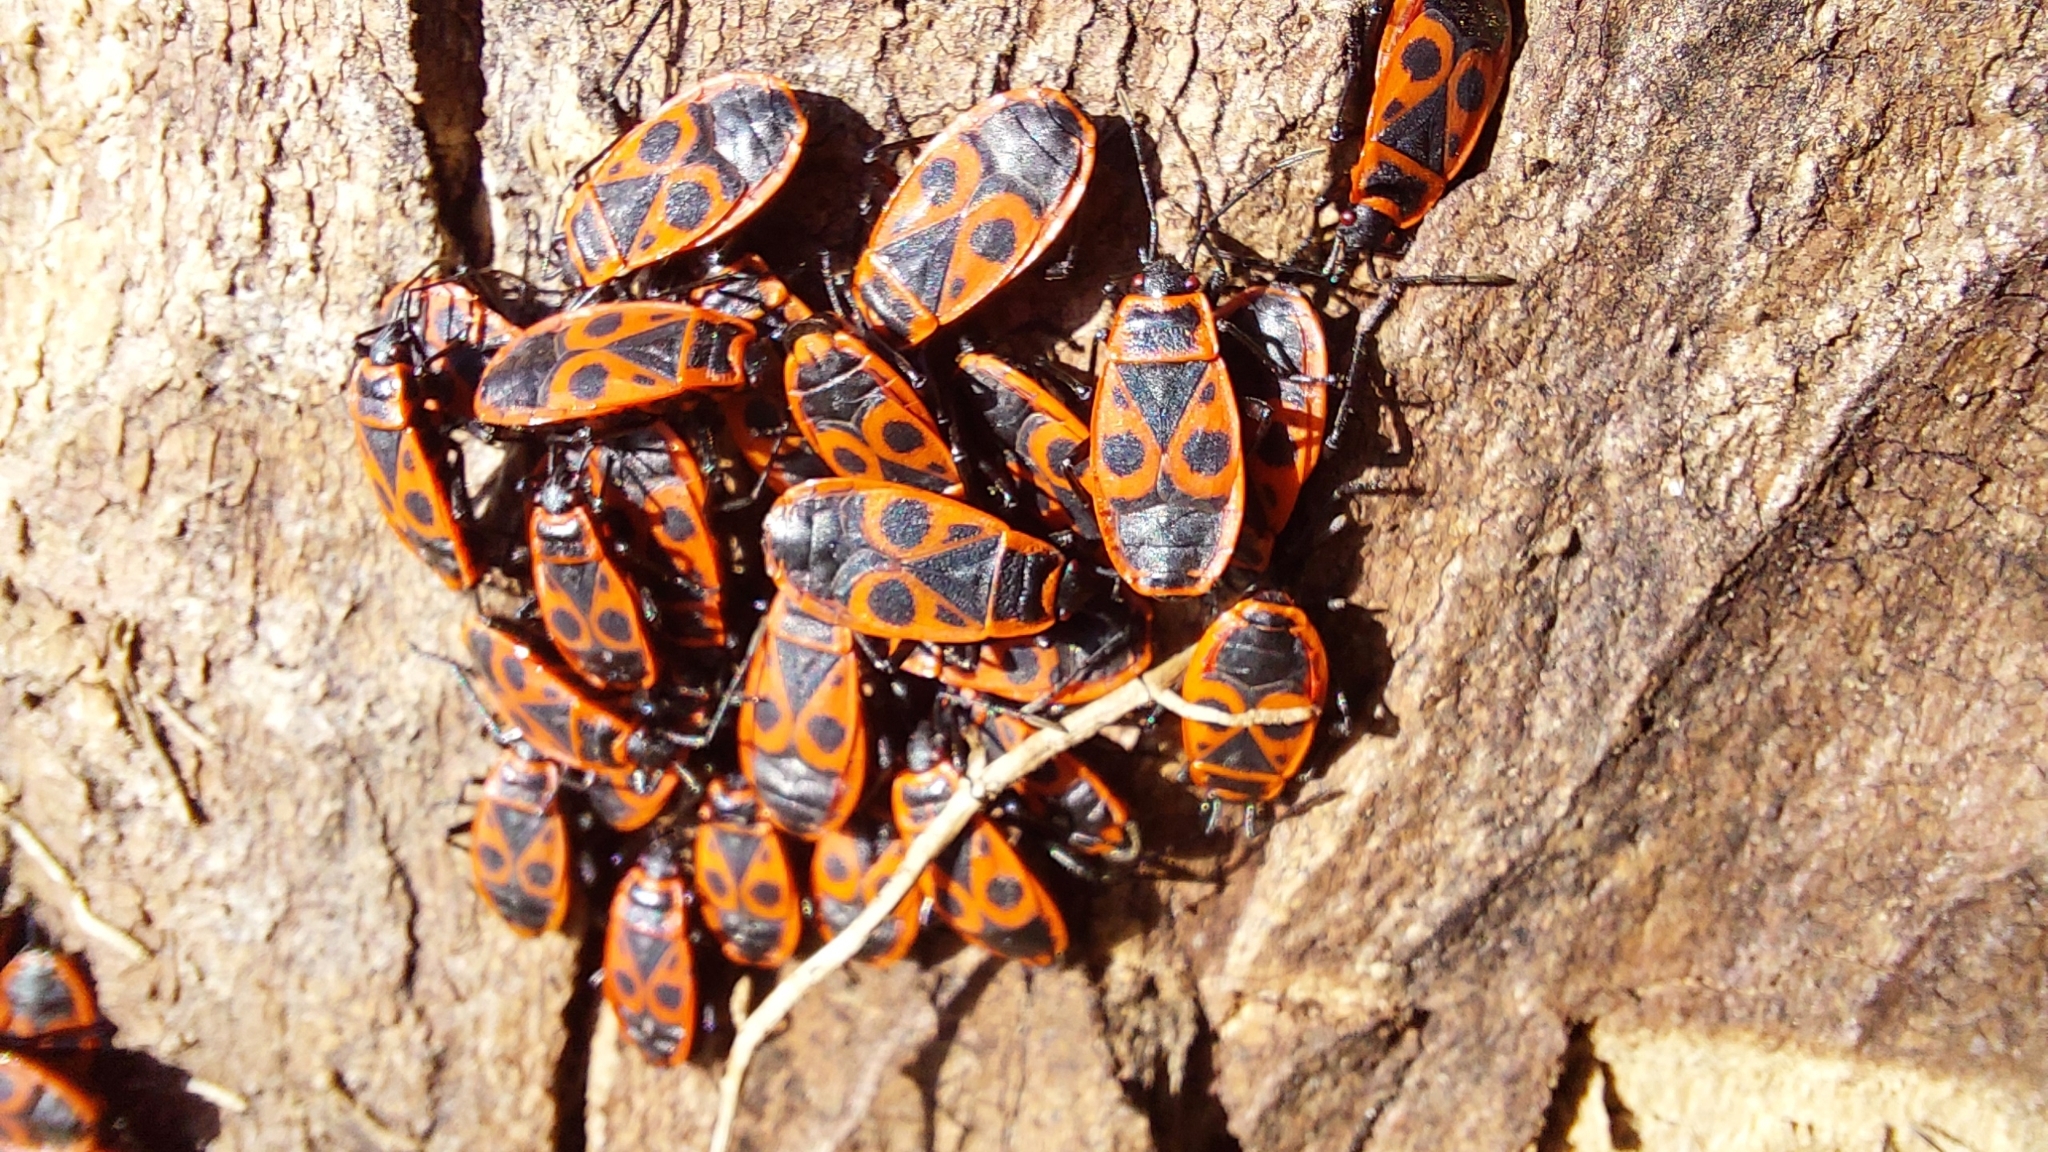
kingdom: Animalia
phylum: Arthropoda
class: Insecta
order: Hemiptera
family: Pyrrhocoridae
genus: Pyrrhocoris
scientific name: Pyrrhocoris apterus
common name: Firebug
